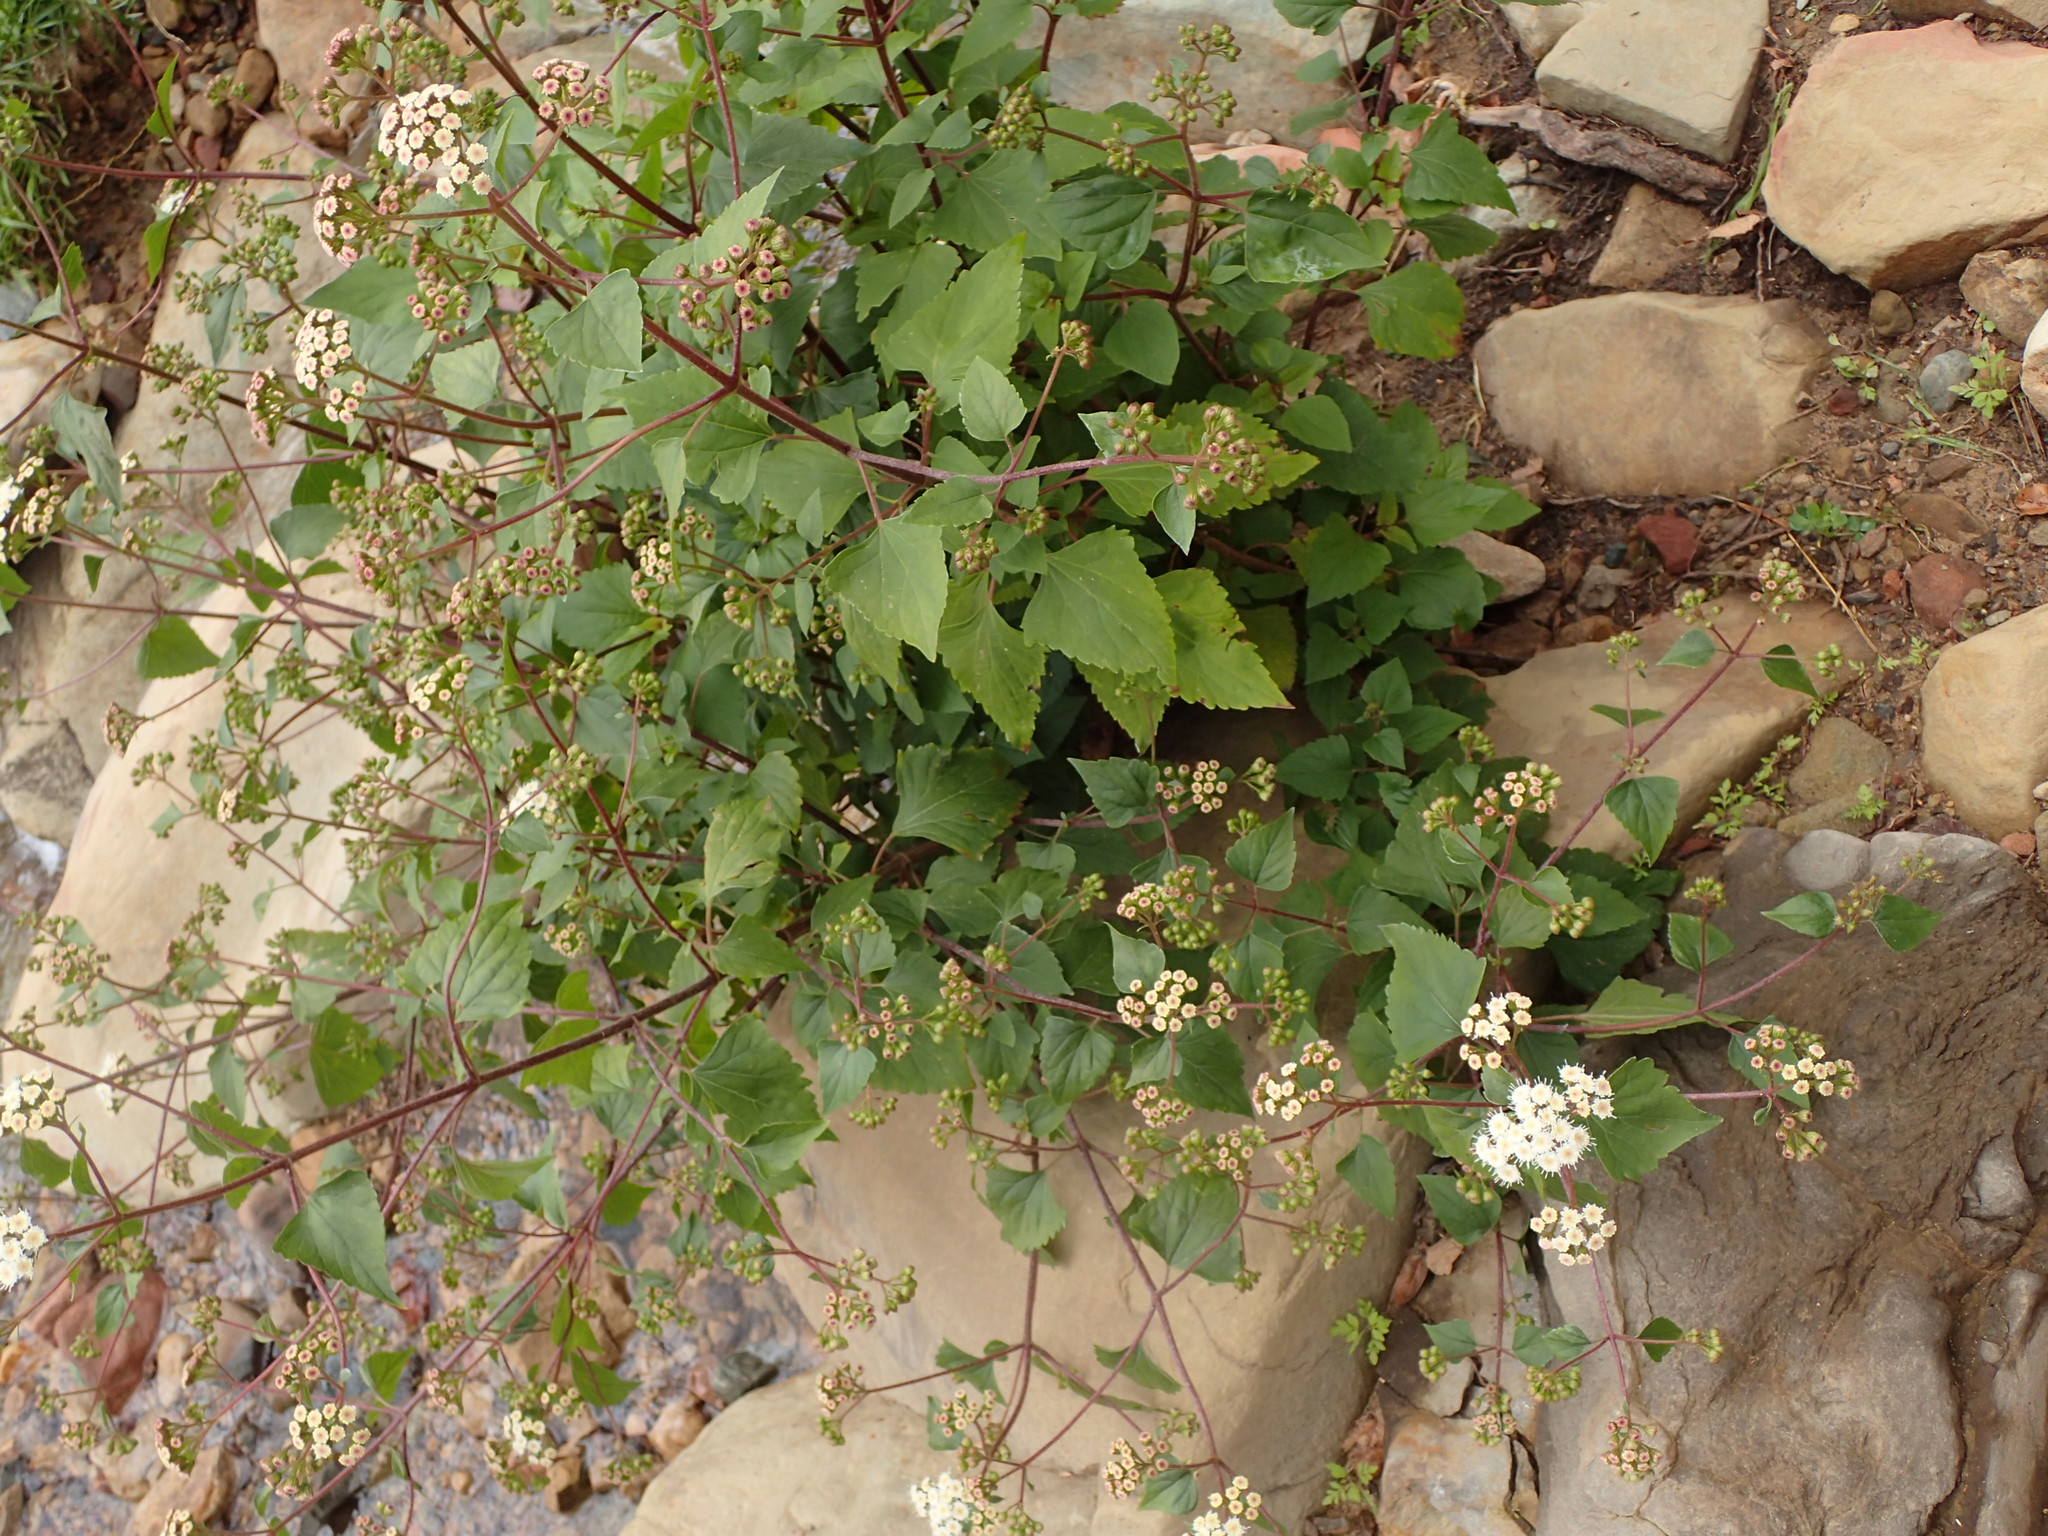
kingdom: Plantae
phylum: Tracheophyta
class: Magnoliopsida
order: Asterales
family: Asteraceae
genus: Ageratina
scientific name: Ageratina adenophora
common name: Sticky snakeroot
